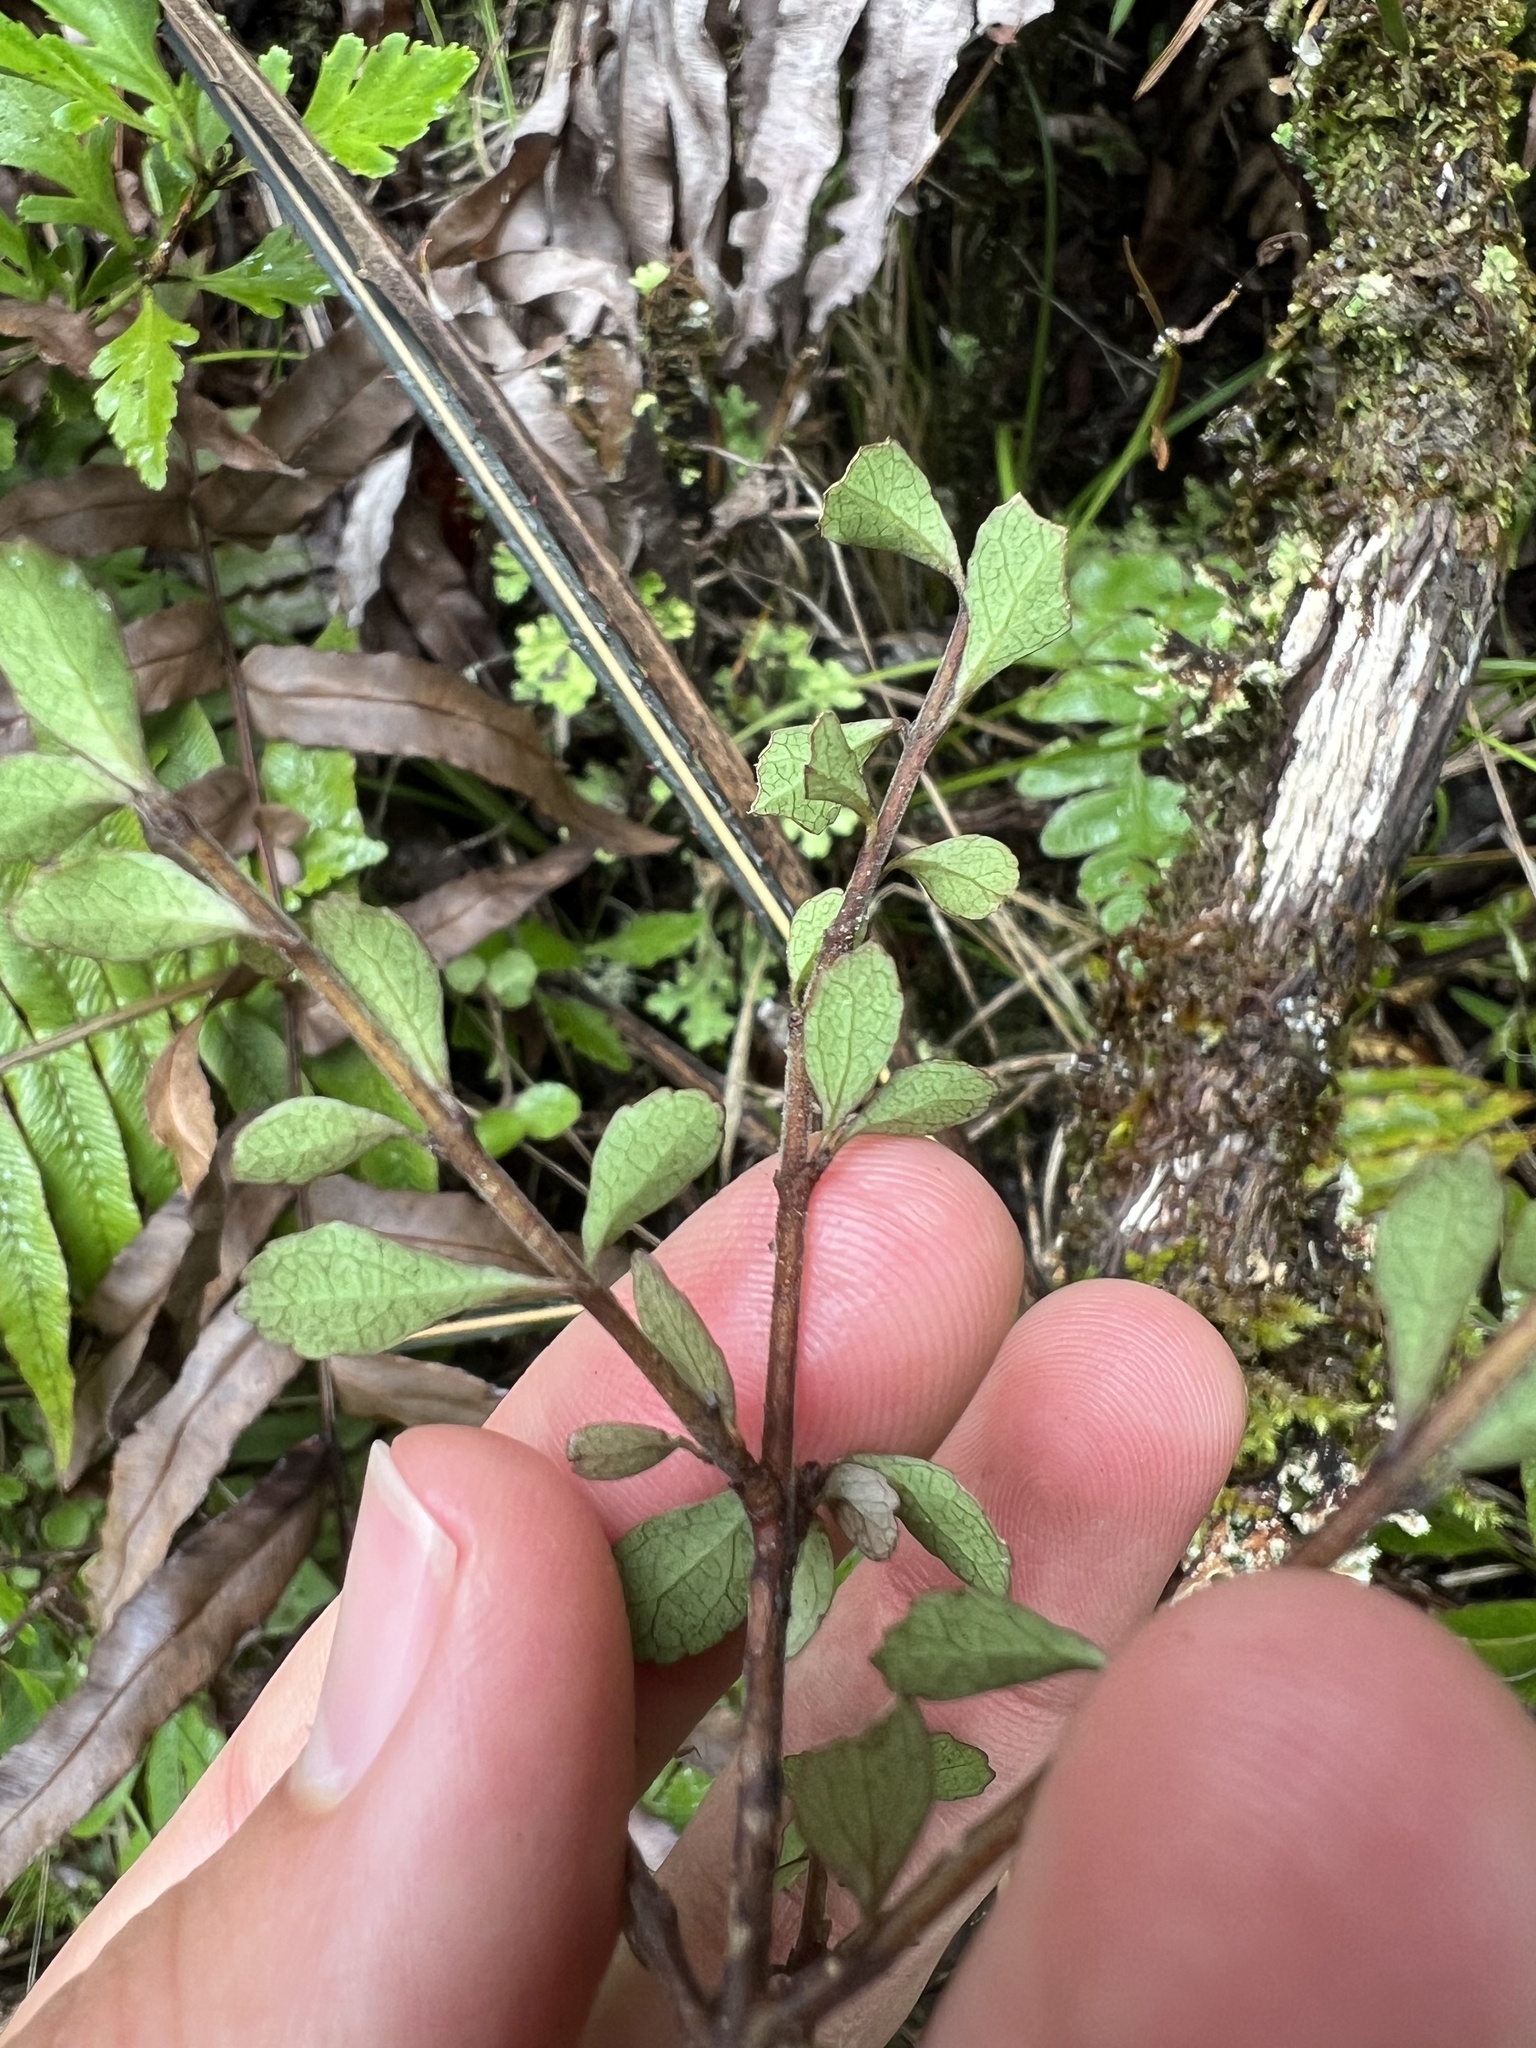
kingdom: Plantae
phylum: Tracheophyta
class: Magnoliopsida
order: Oxalidales
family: Elaeocarpaceae
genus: Aristotelia
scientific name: Aristotelia fruticosa
